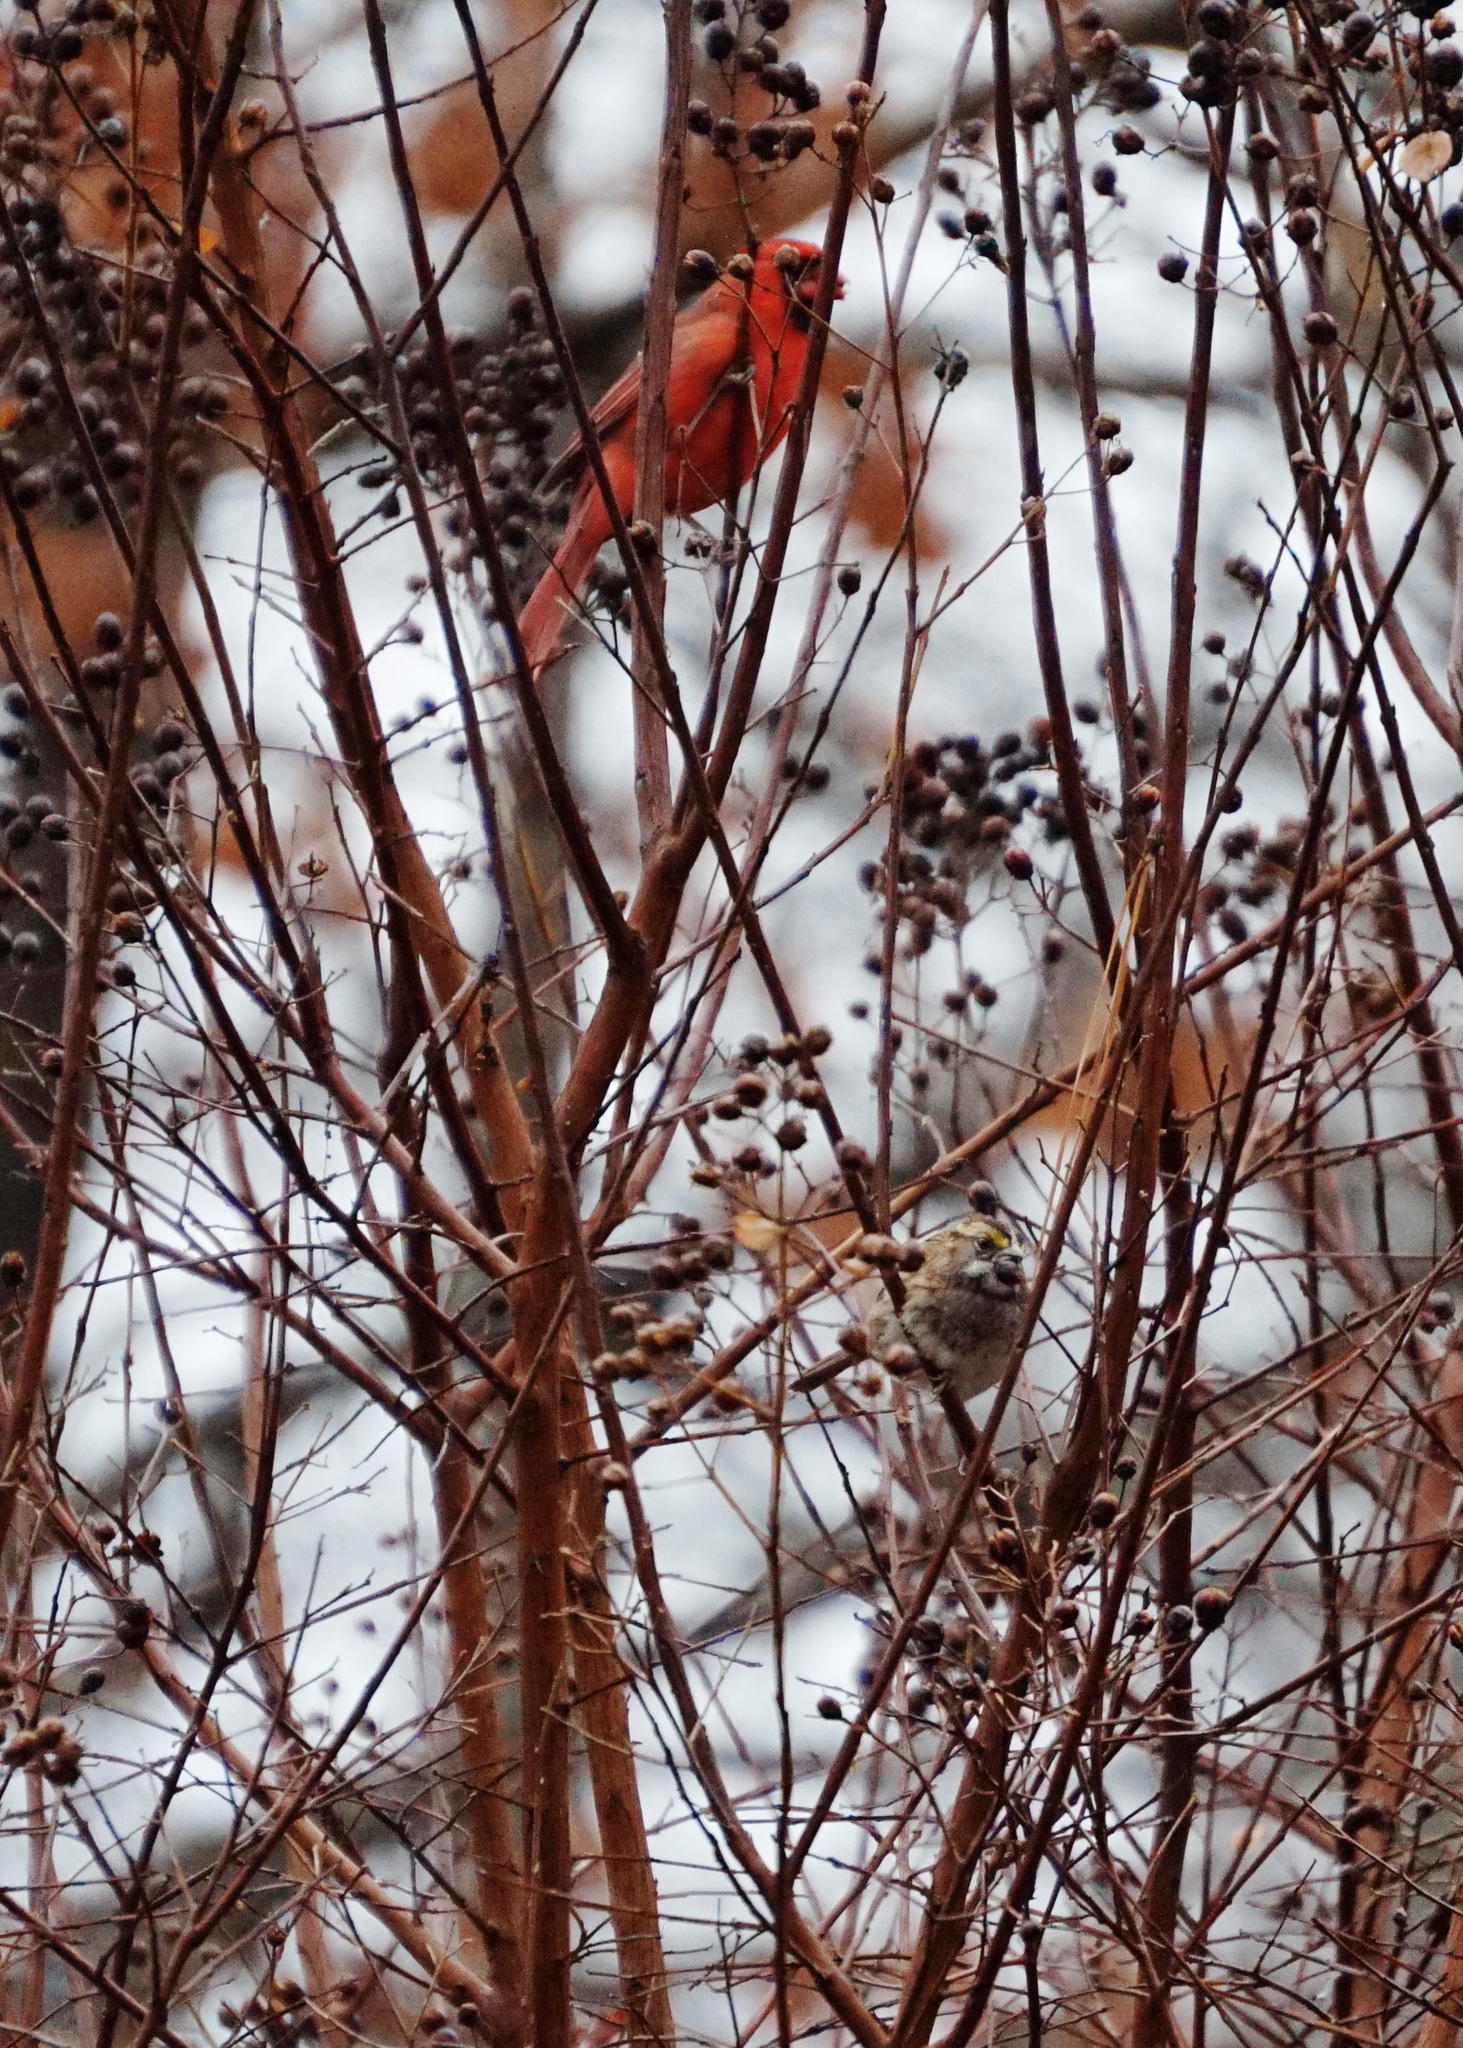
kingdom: Animalia
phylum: Chordata
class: Aves
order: Passeriformes
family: Cardinalidae
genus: Cardinalis
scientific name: Cardinalis cardinalis
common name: Northern cardinal
